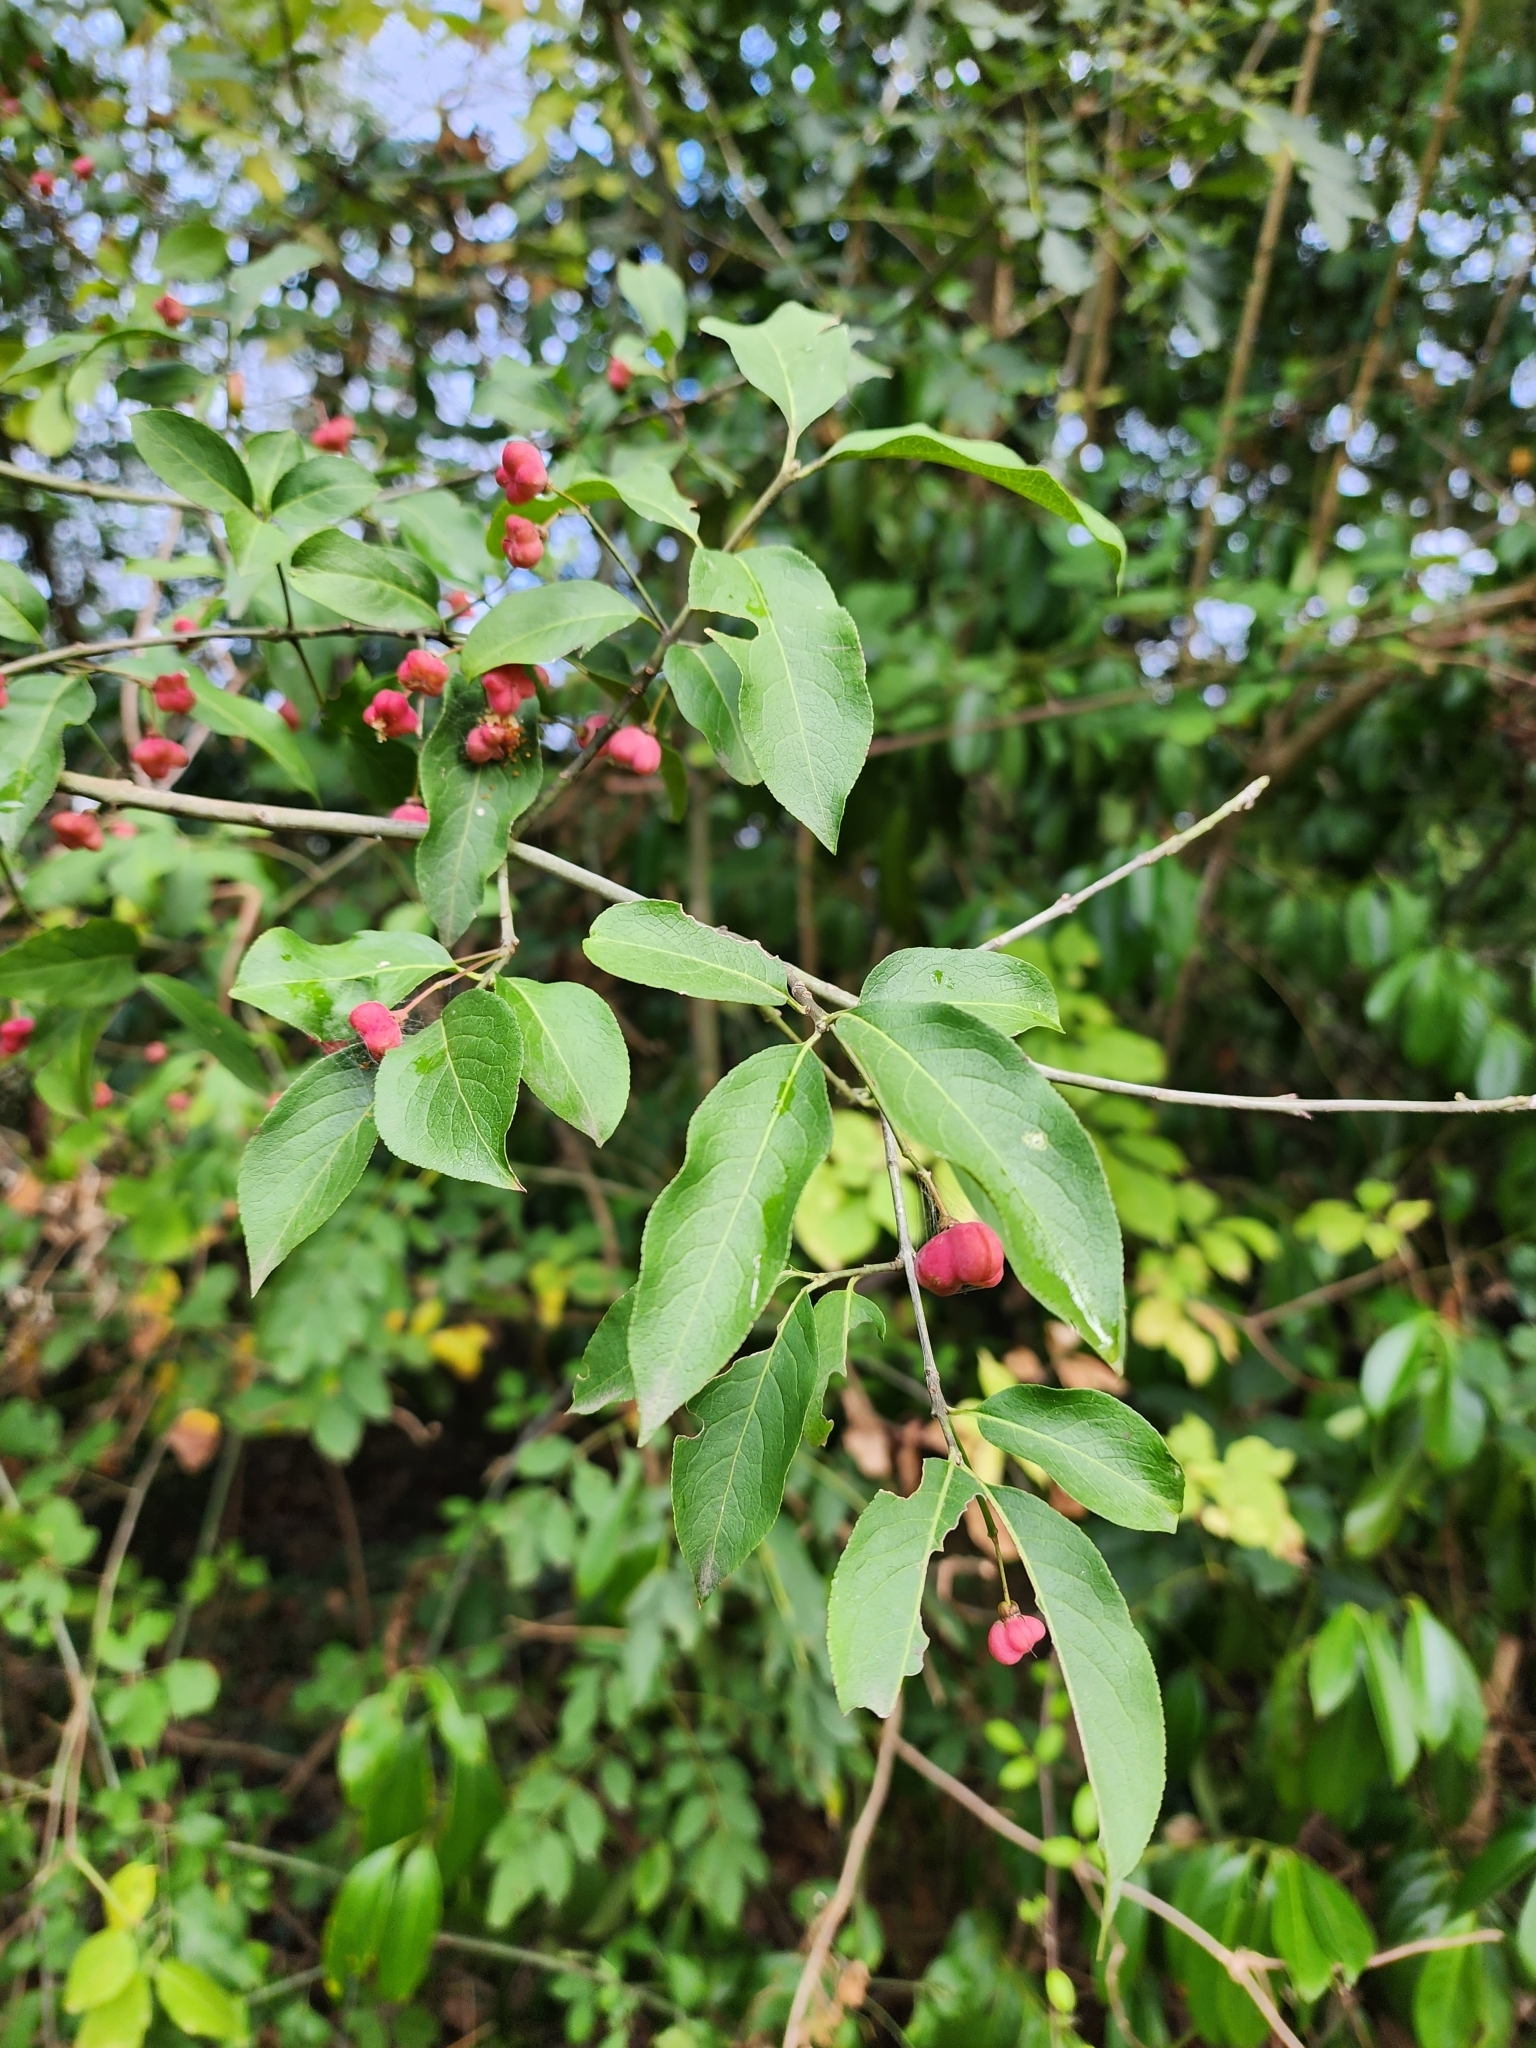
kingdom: Plantae
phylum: Tracheophyta
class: Magnoliopsida
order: Celastrales
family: Celastraceae
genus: Euonymus
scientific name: Euonymus europaeus
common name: Spindle
